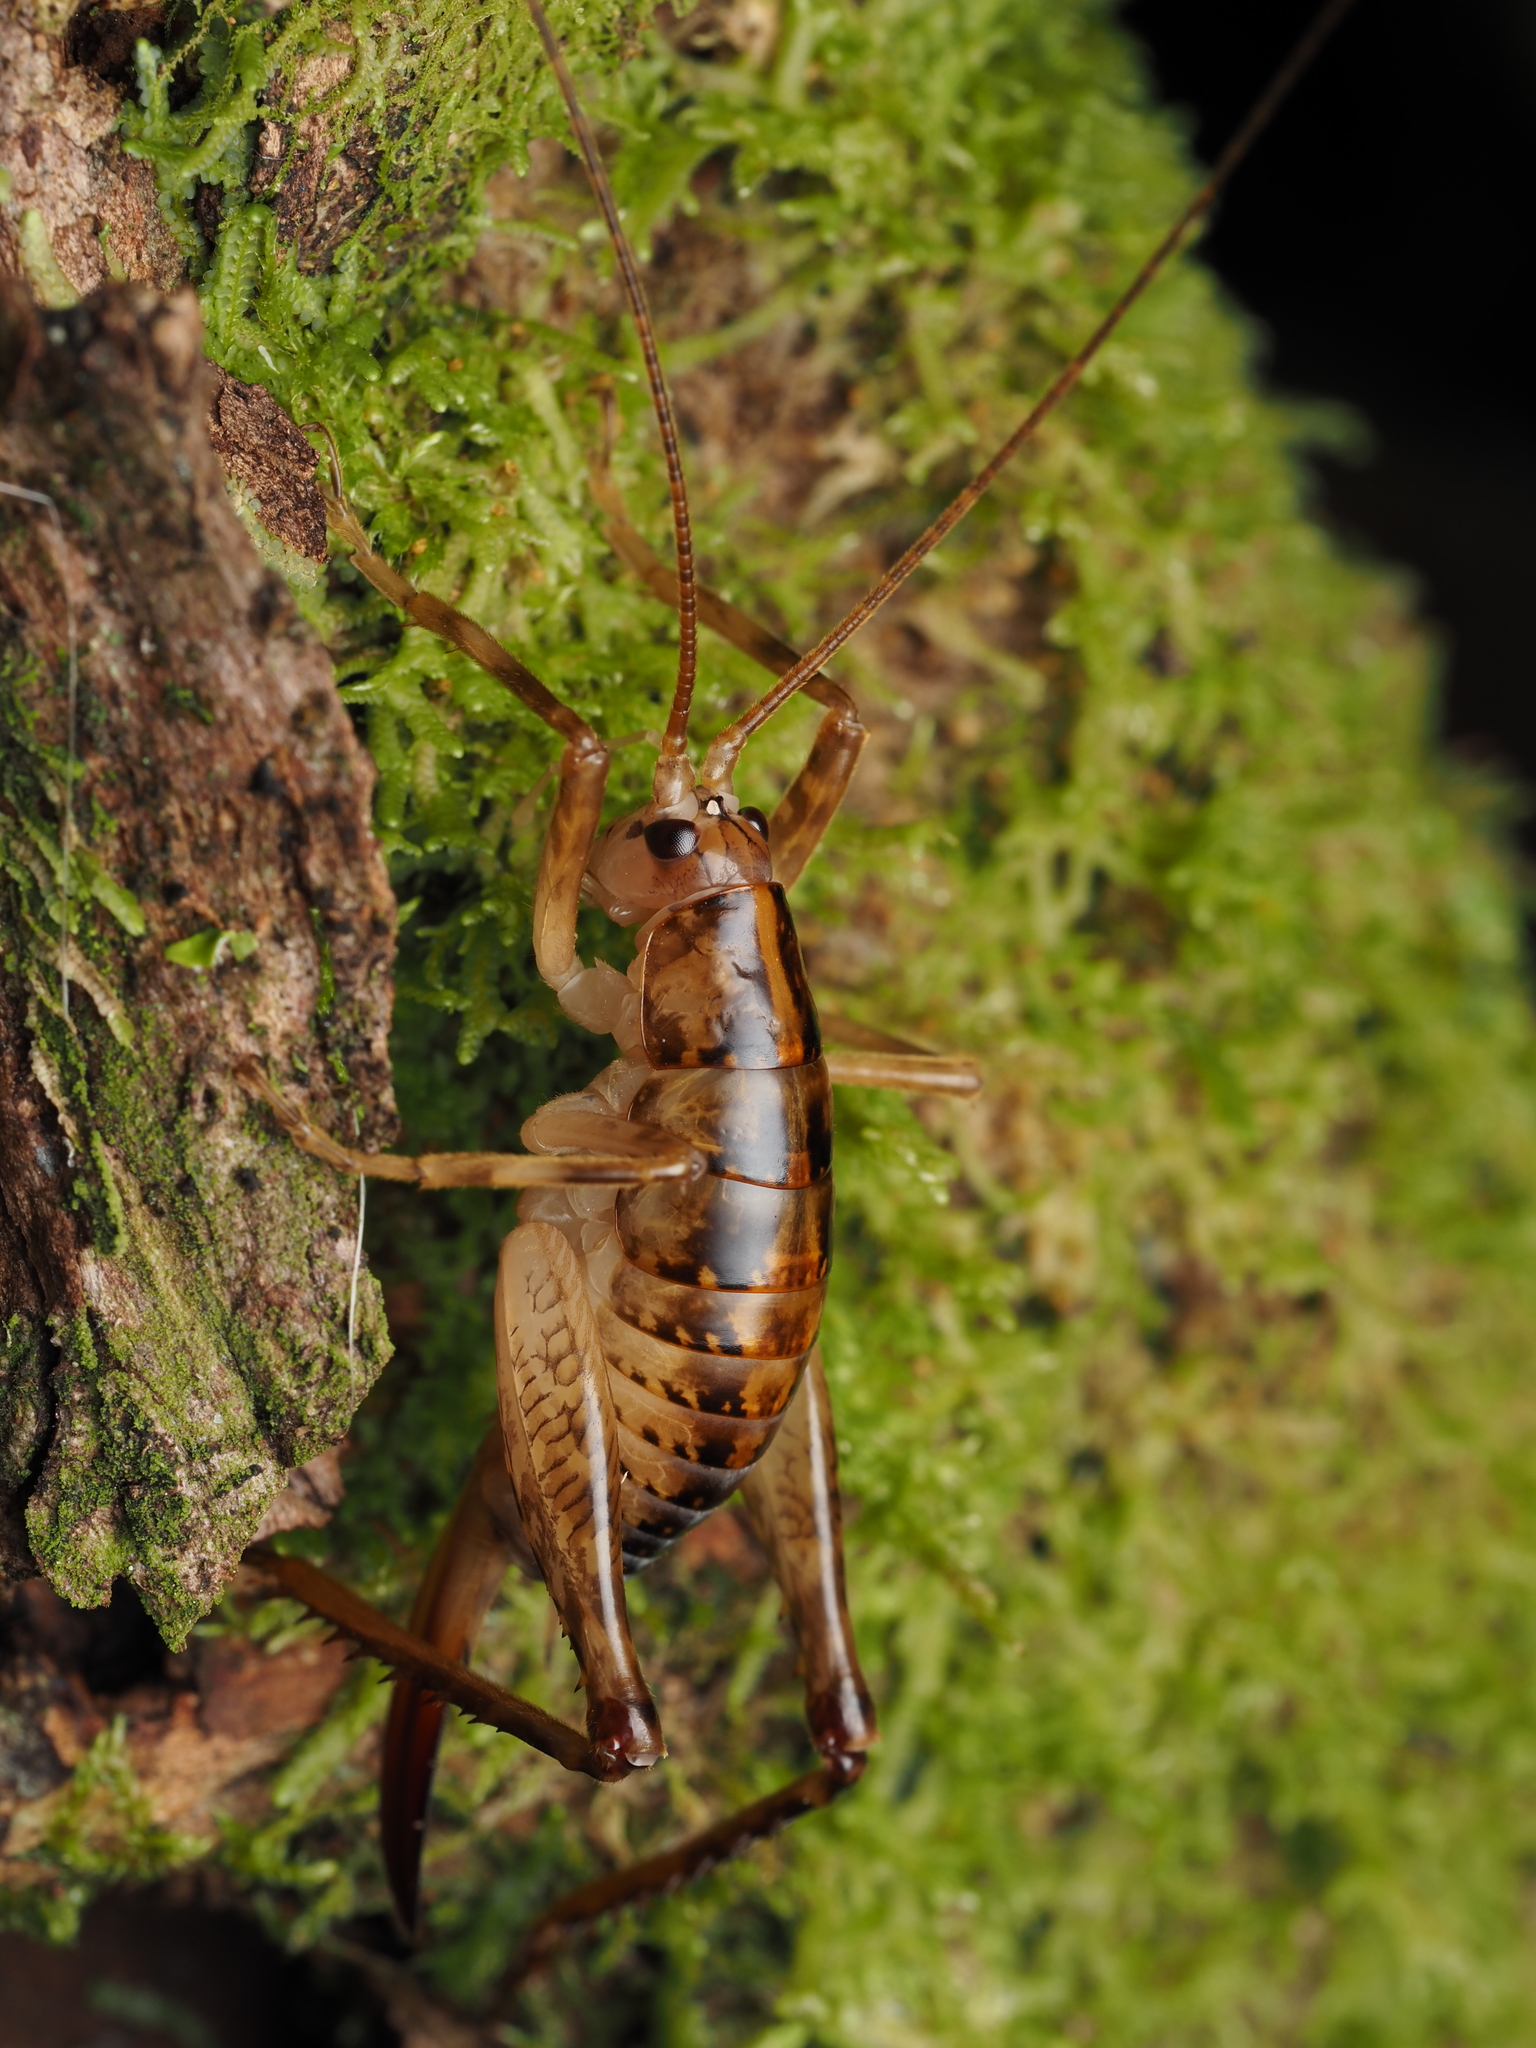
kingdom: Animalia
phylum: Arthropoda
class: Insecta
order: Orthoptera
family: Rhaphidophoridae
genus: Talitropsis
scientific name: Talitropsis sedilloti
